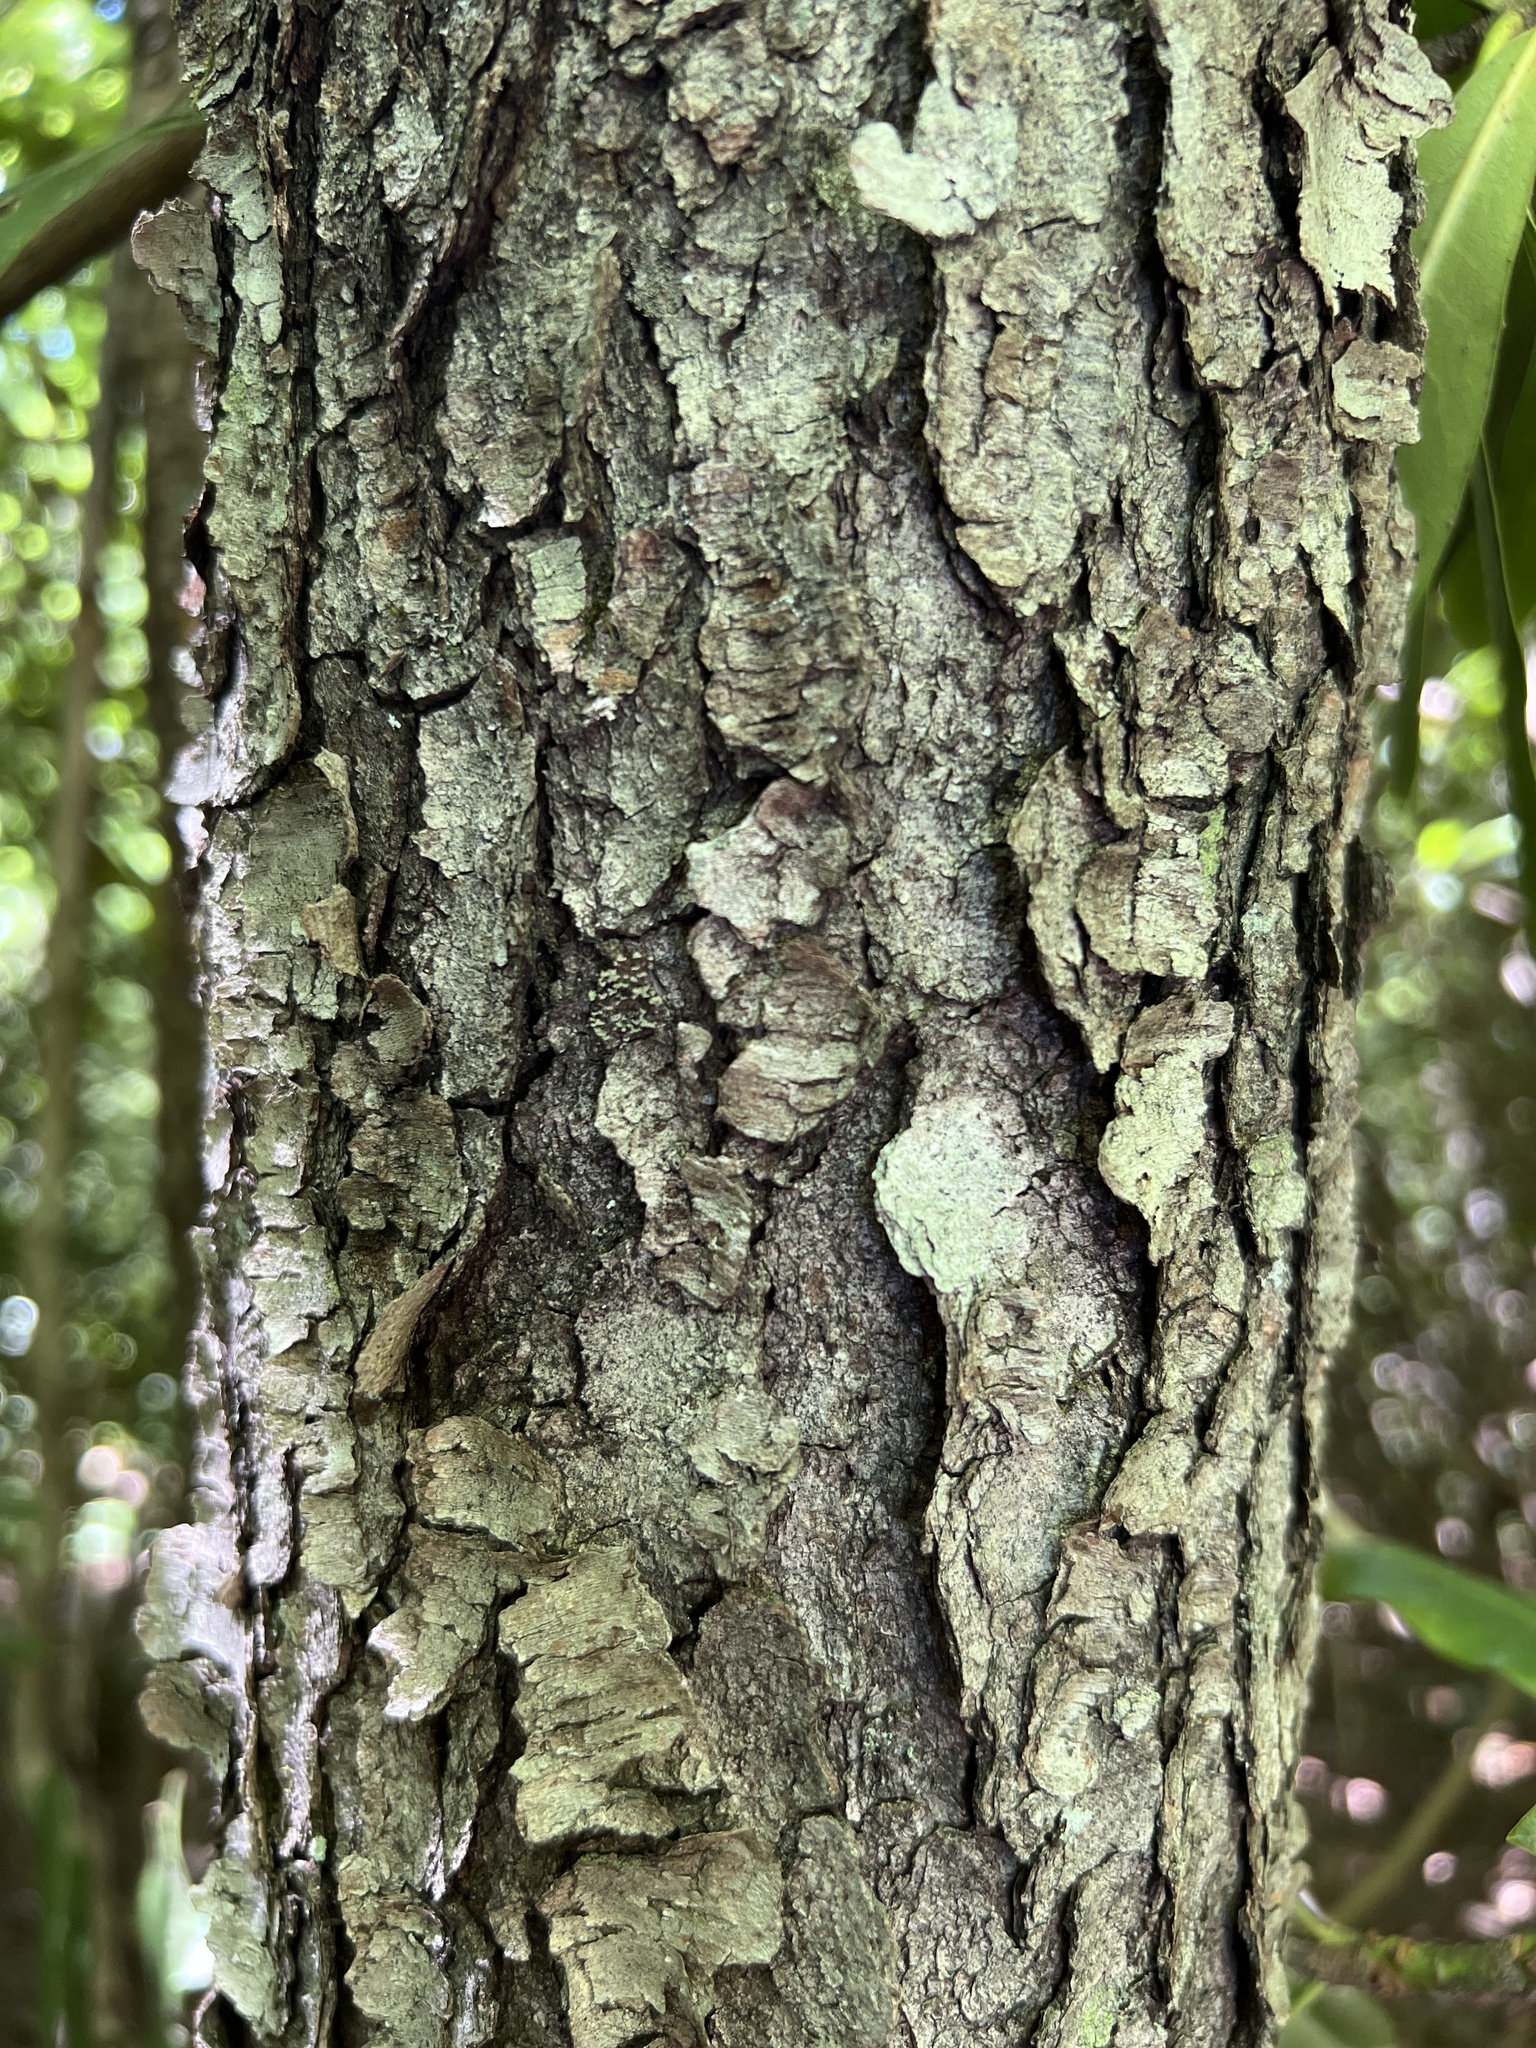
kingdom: Plantae
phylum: Tracheophyta
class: Magnoliopsida
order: Rosales
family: Rosaceae
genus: Prunus
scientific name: Prunus serotina
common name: Black cherry
